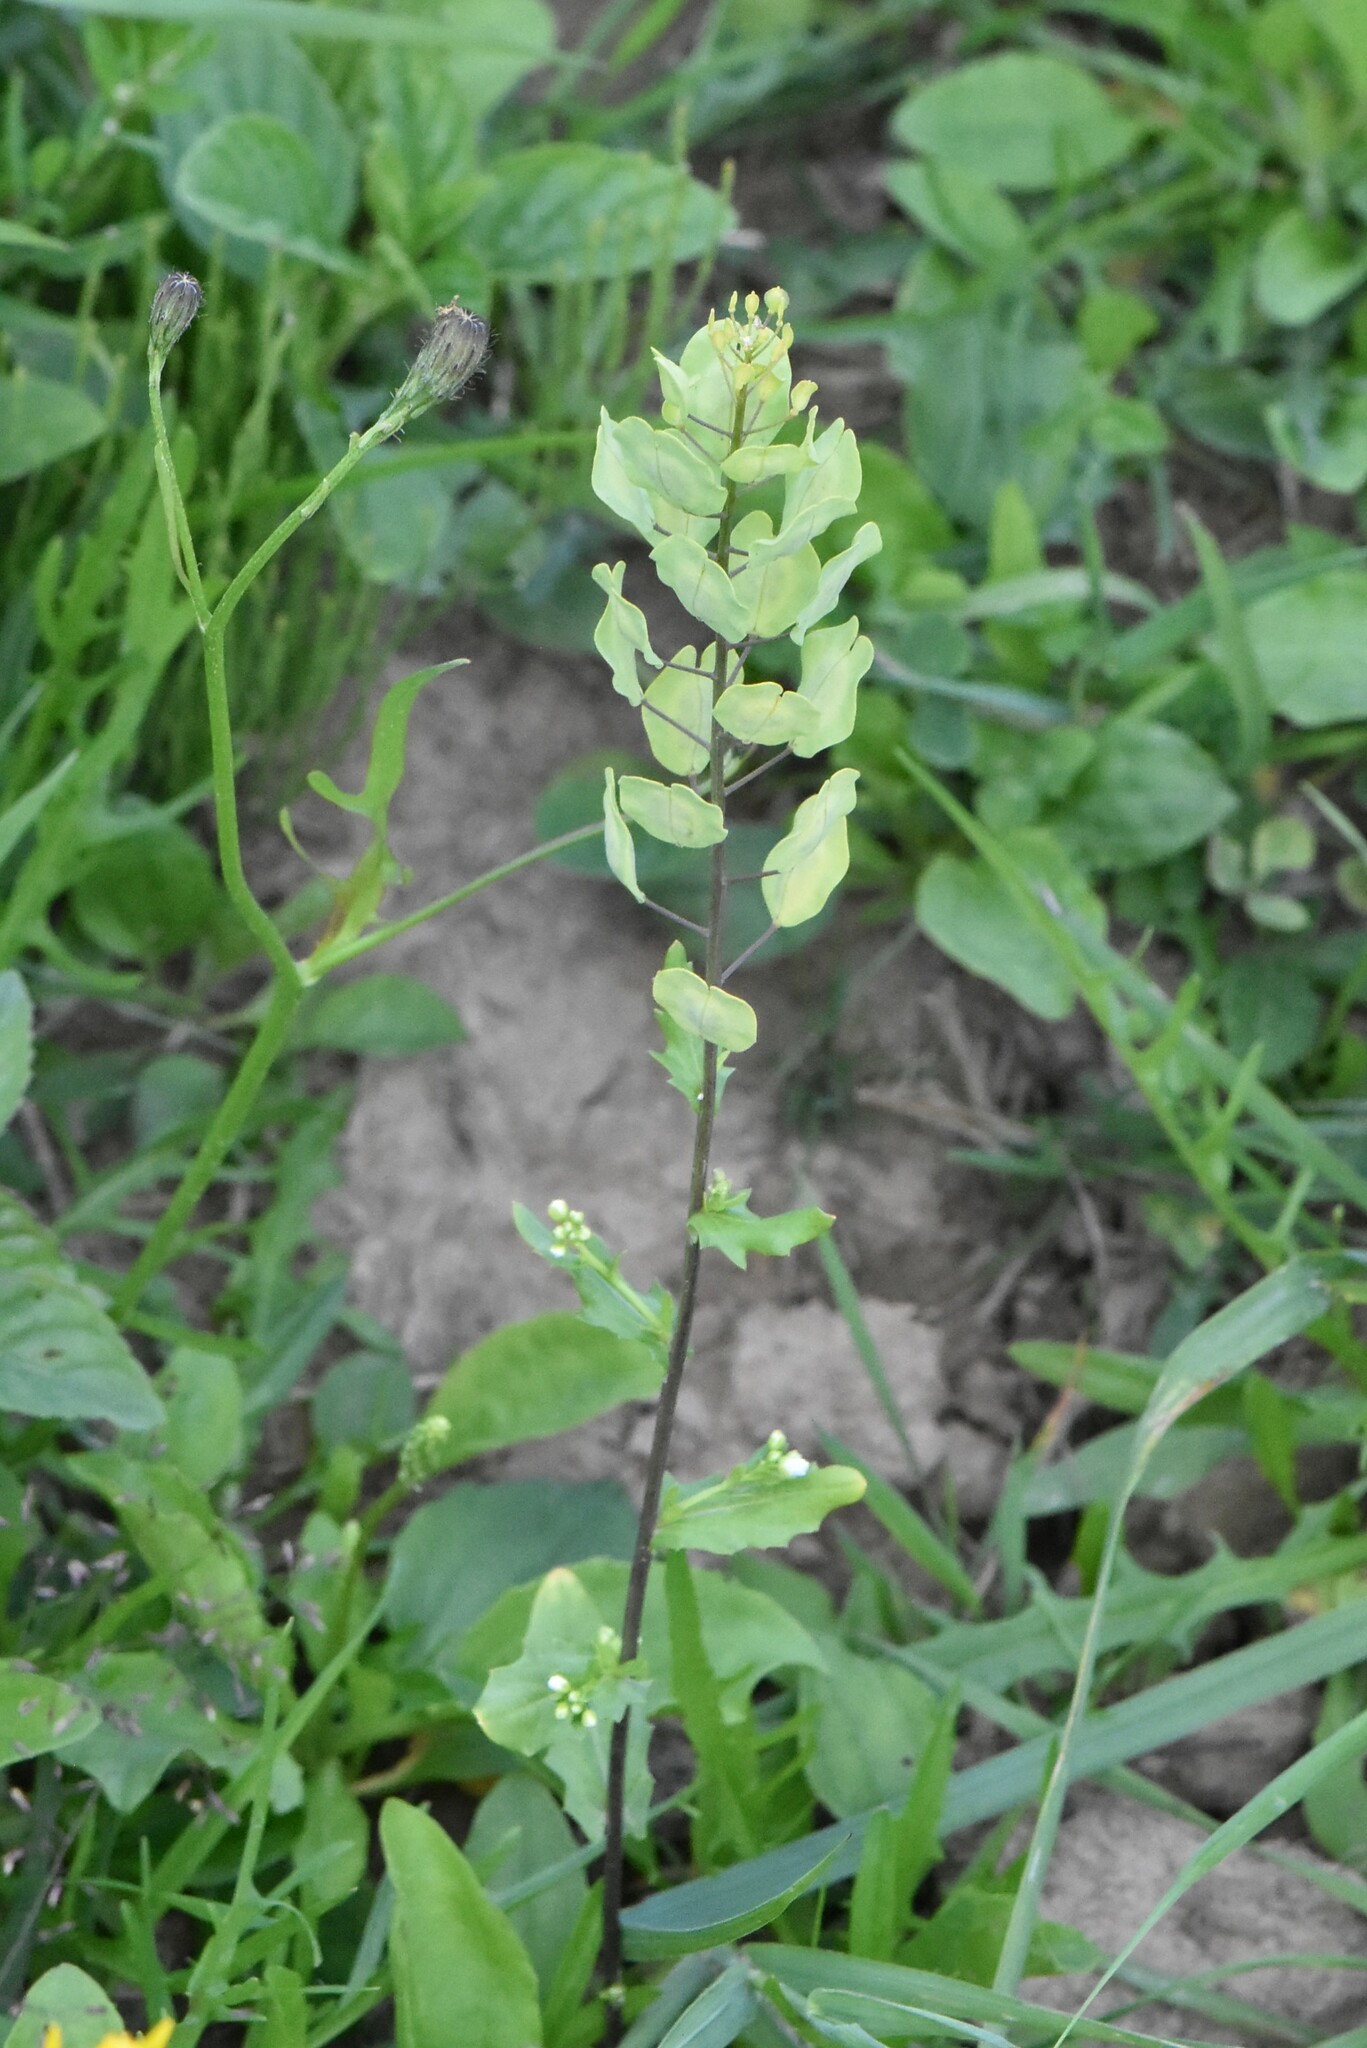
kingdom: Plantae
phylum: Tracheophyta
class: Magnoliopsida
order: Brassicales
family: Brassicaceae
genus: Thlaspi
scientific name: Thlaspi arvense
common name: Field pennycress
